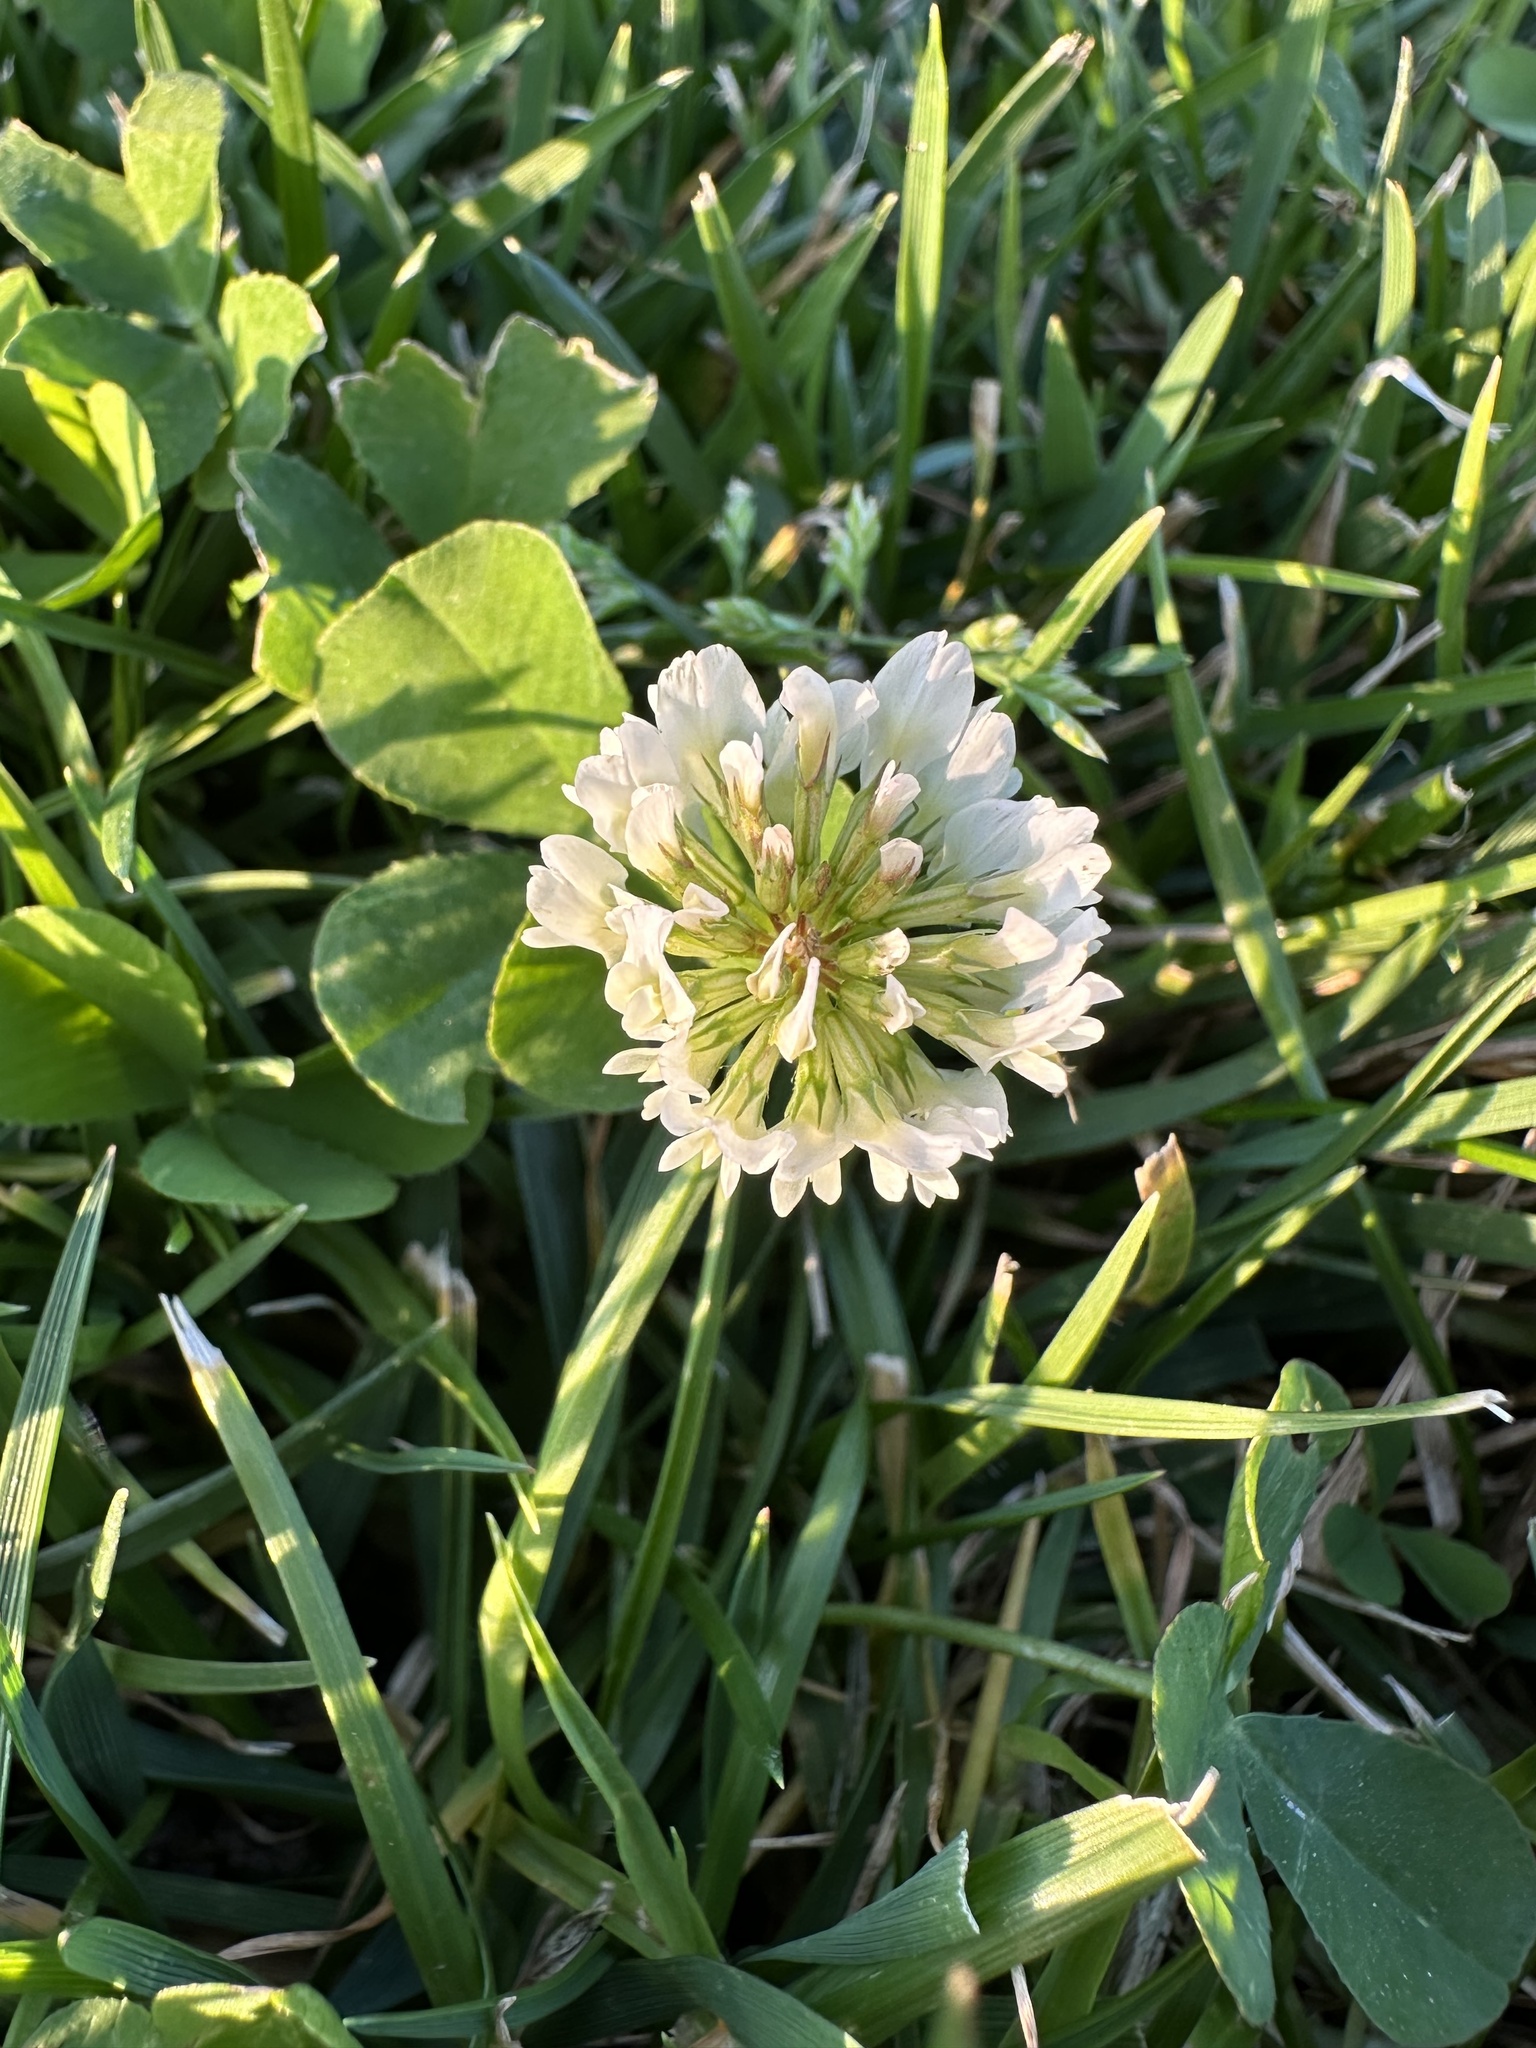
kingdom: Plantae
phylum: Tracheophyta
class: Magnoliopsida
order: Fabales
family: Fabaceae
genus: Trifolium
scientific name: Trifolium repens
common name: White clover
